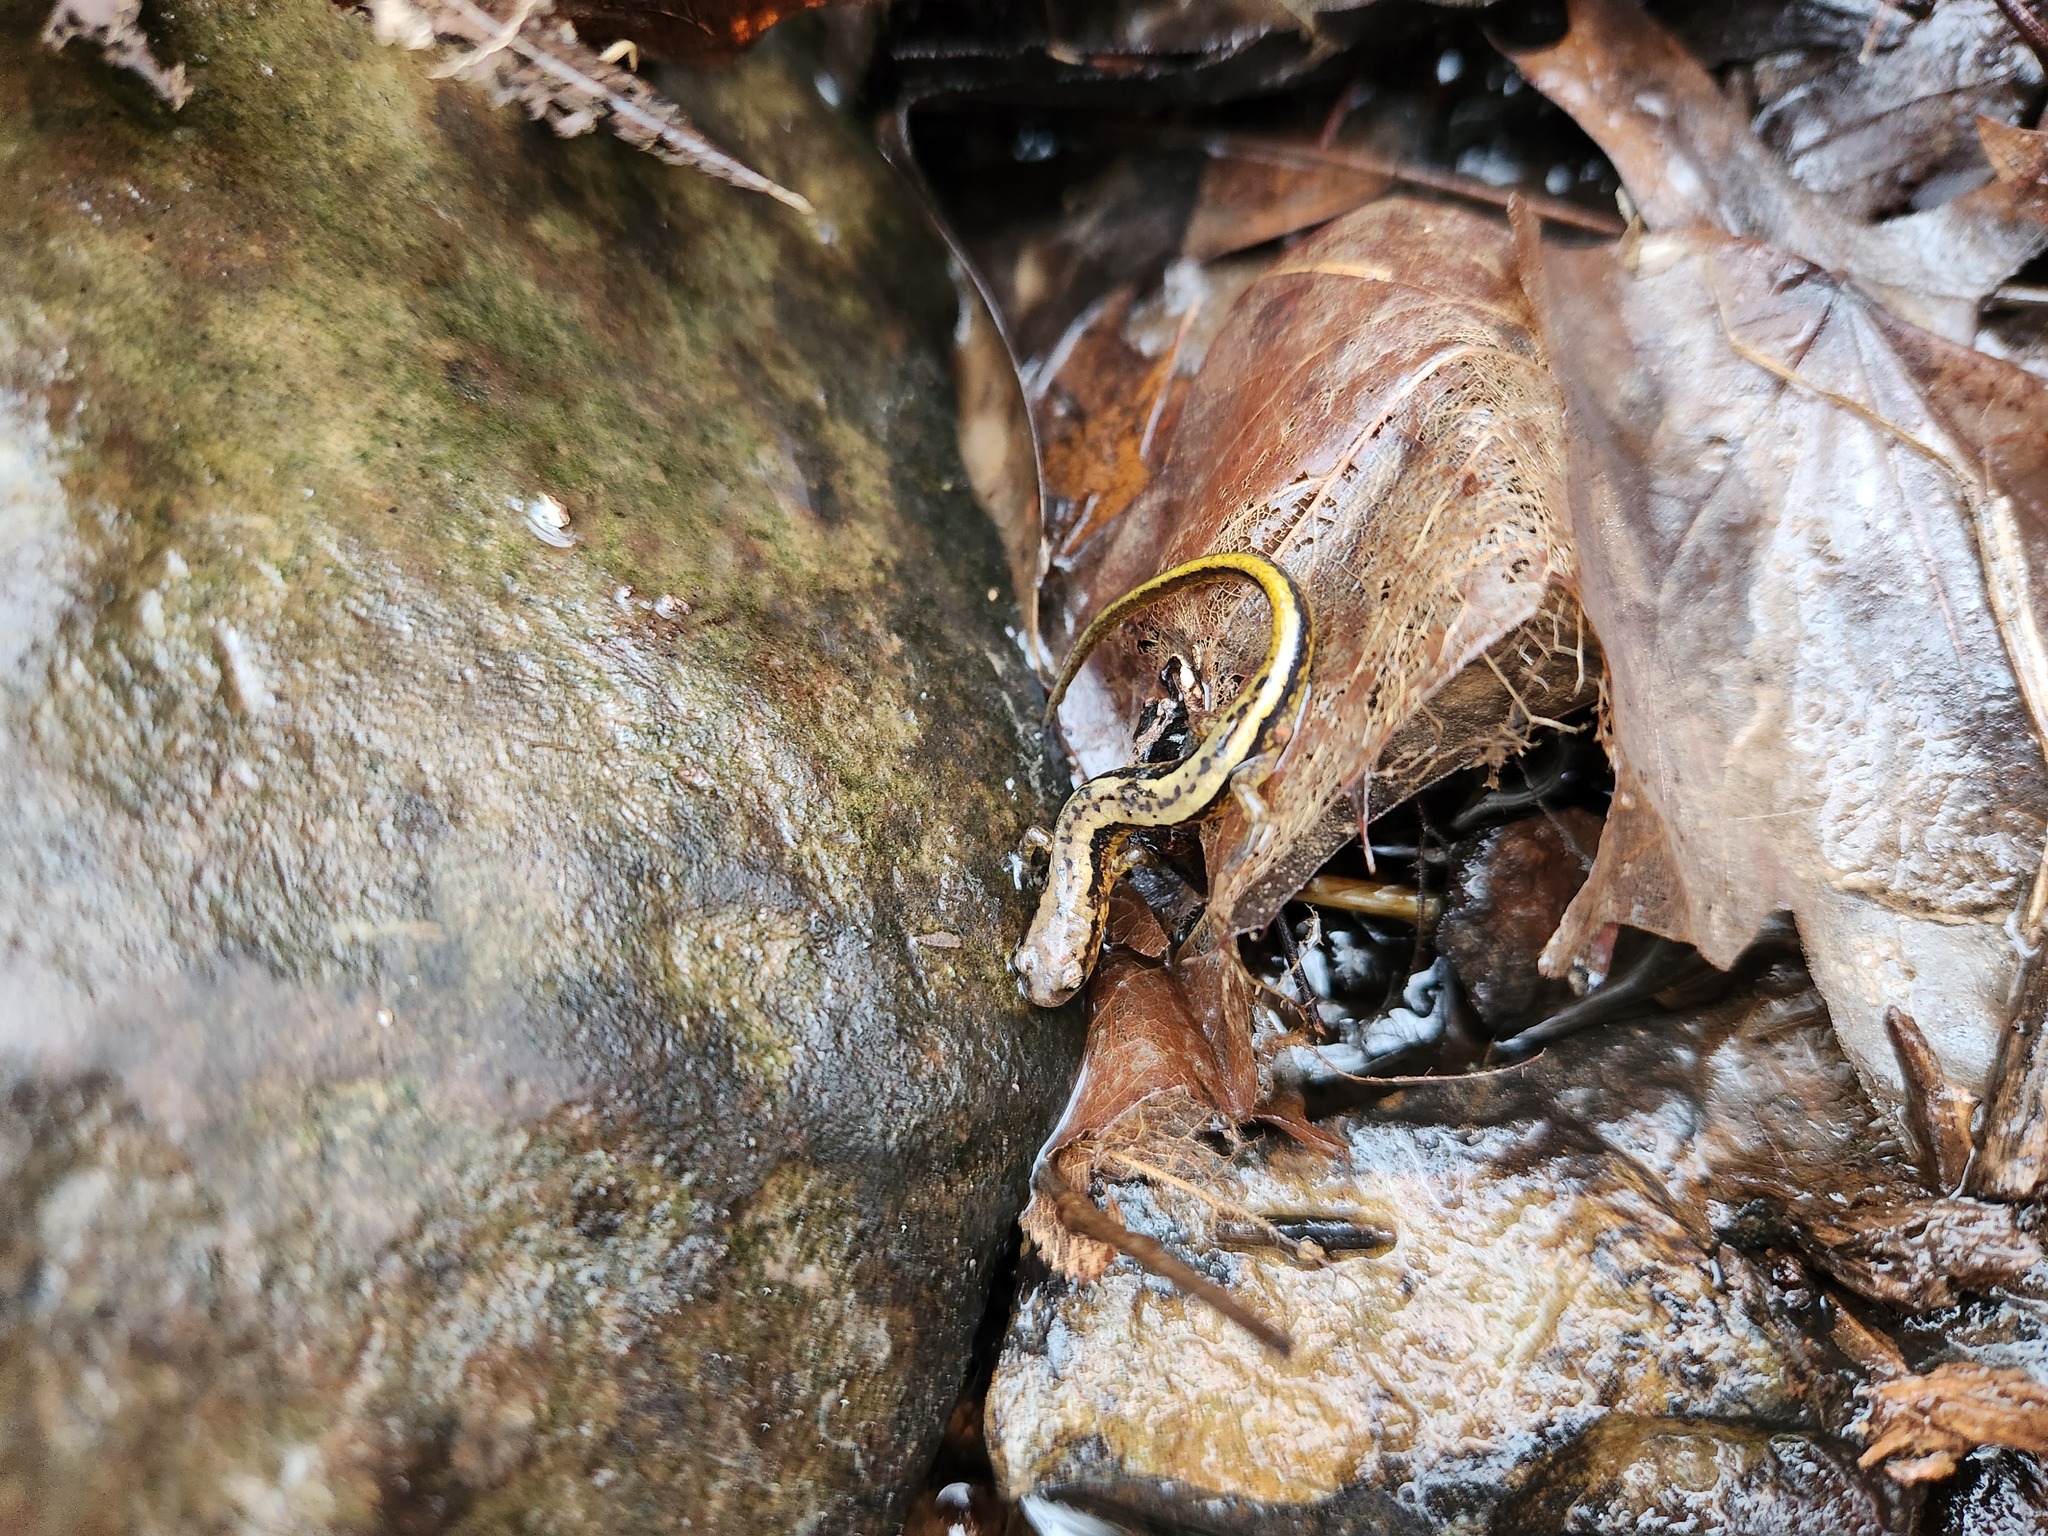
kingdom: Animalia
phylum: Chordata
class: Amphibia
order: Caudata
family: Plethodontidae
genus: Eurycea
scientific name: Eurycea cirrigera
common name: Southern two-lined salamander
